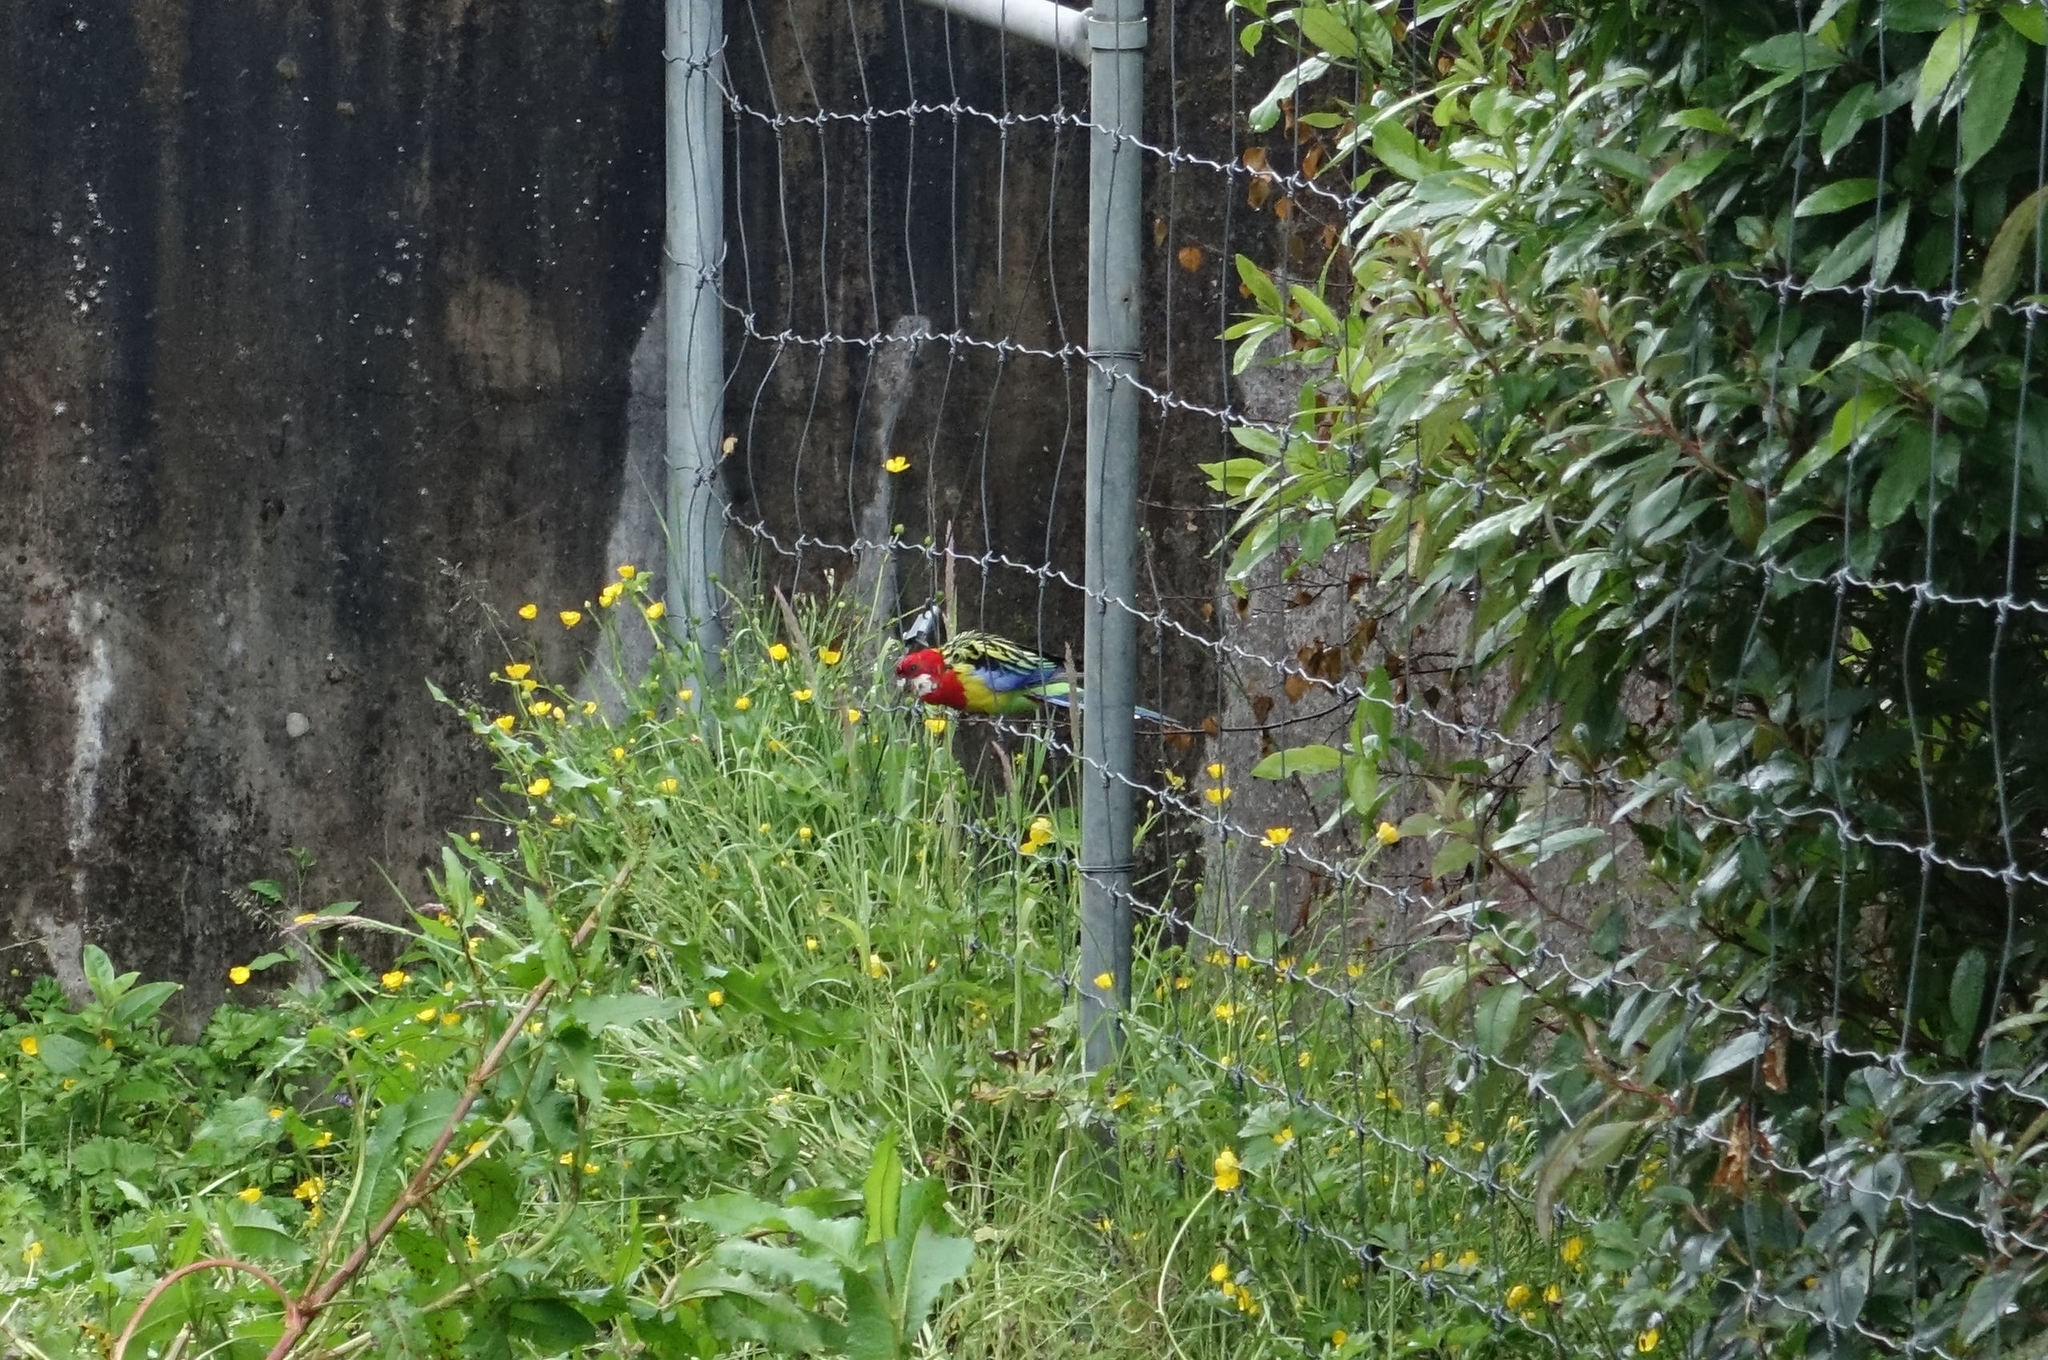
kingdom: Animalia
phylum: Chordata
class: Aves
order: Psittaciformes
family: Psittacidae
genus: Platycercus
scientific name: Platycercus eximius
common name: Eastern rosella
